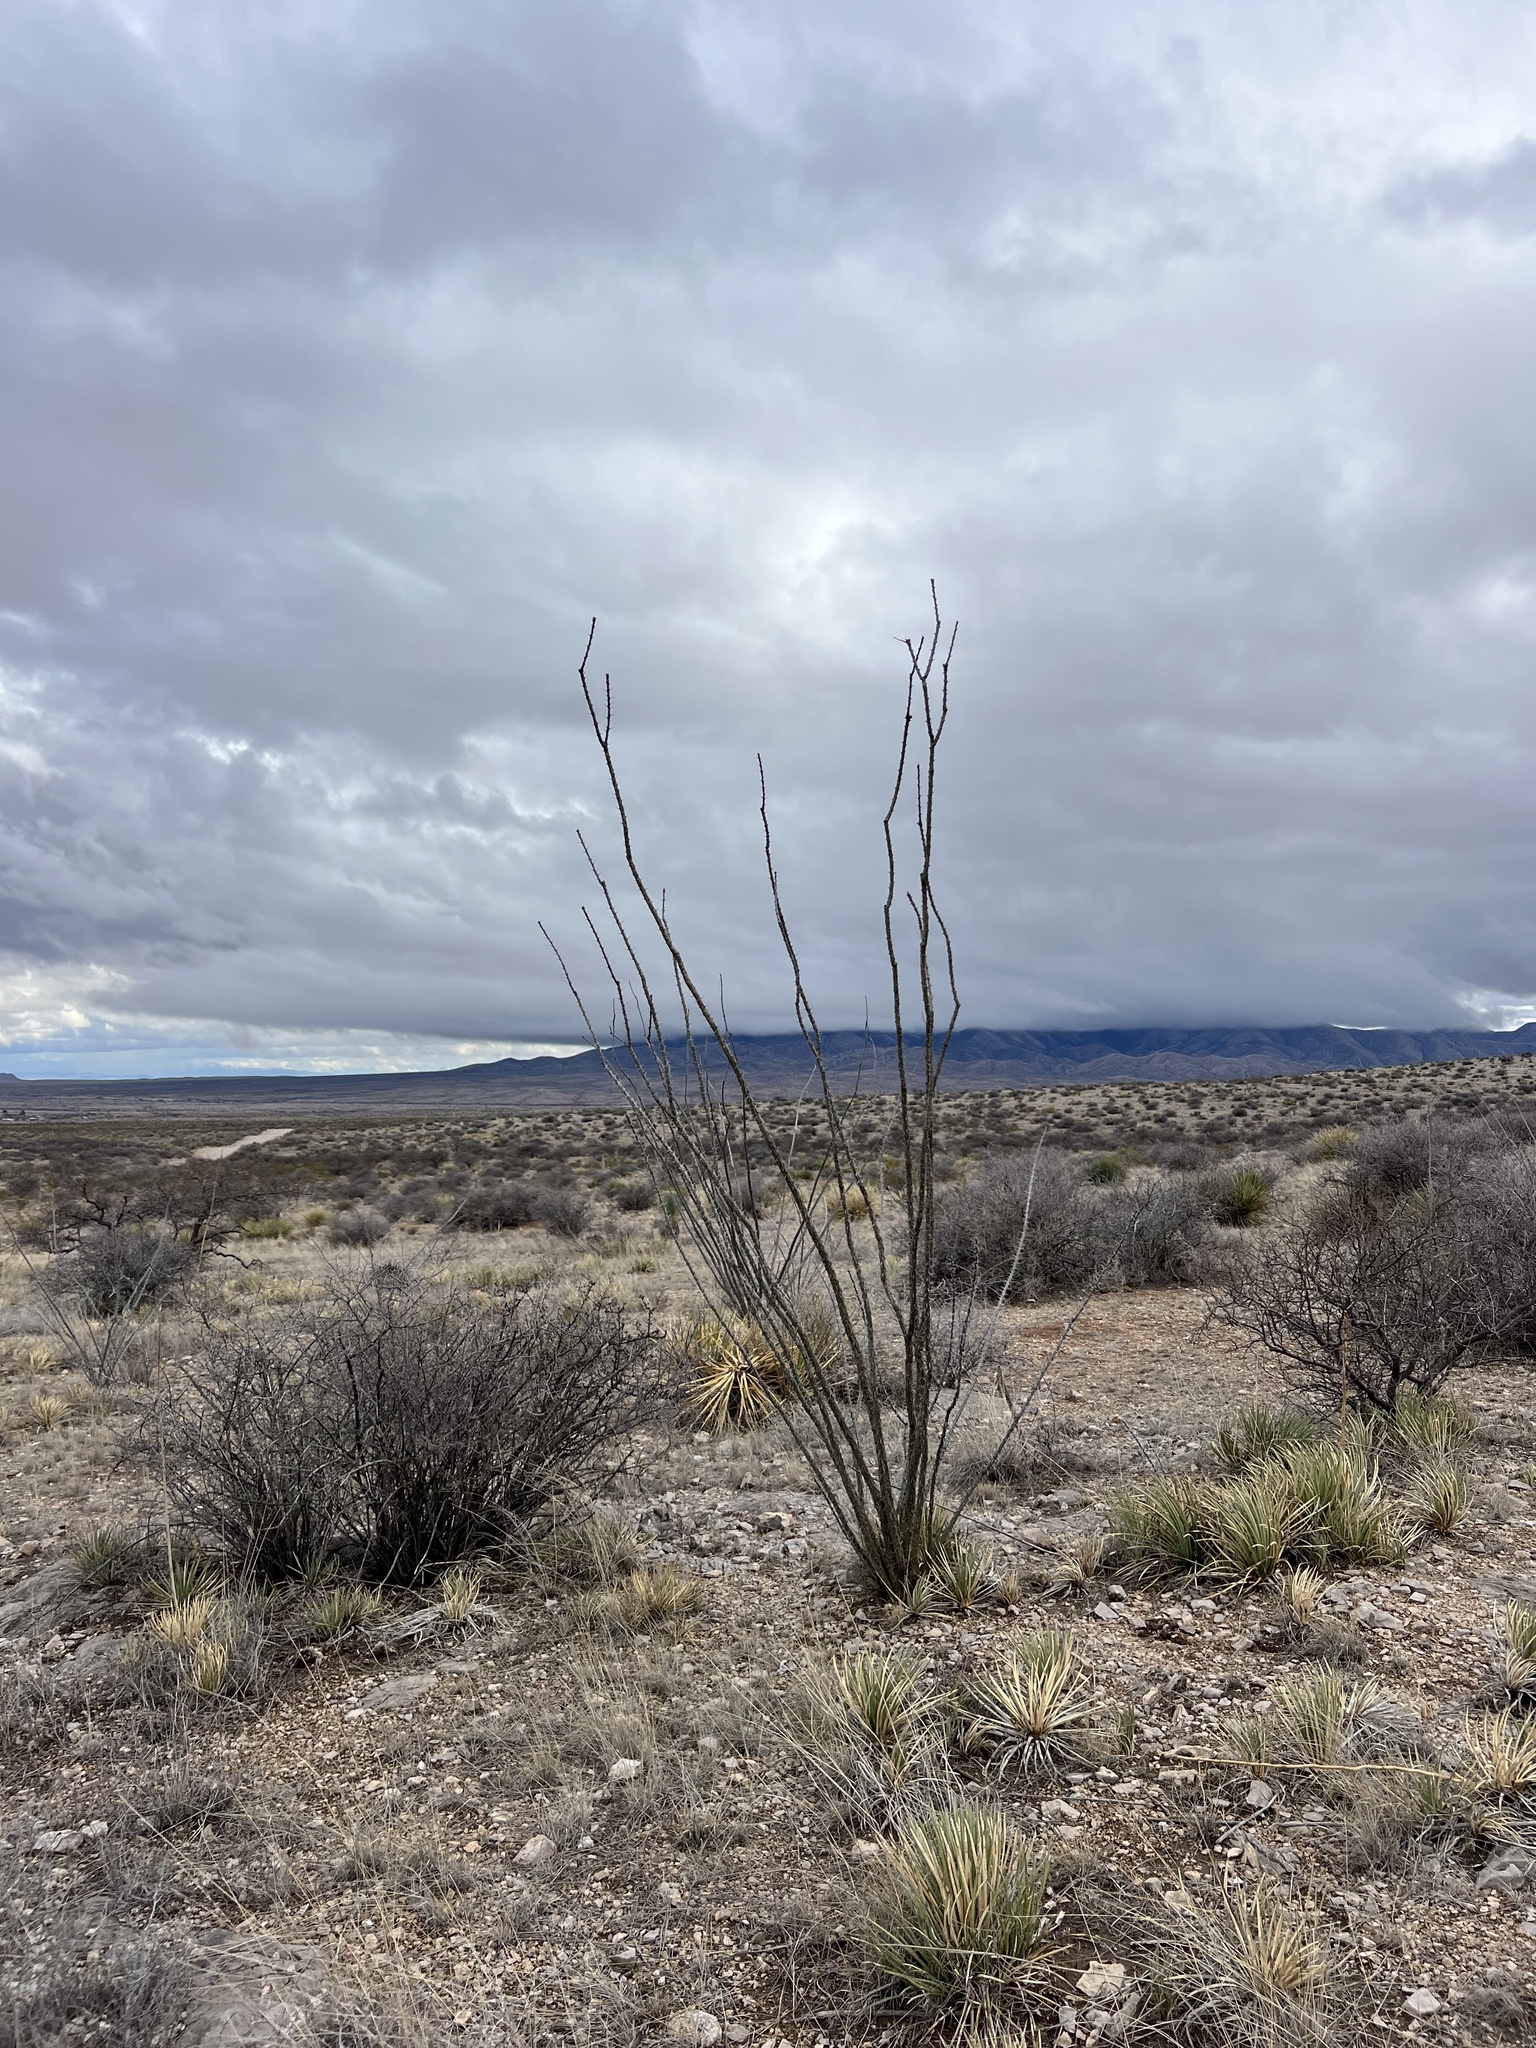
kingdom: Plantae
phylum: Tracheophyta
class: Magnoliopsida
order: Ericales
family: Fouquieriaceae
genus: Fouquieria
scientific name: Fouquieria splendens
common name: Vine-cactus
